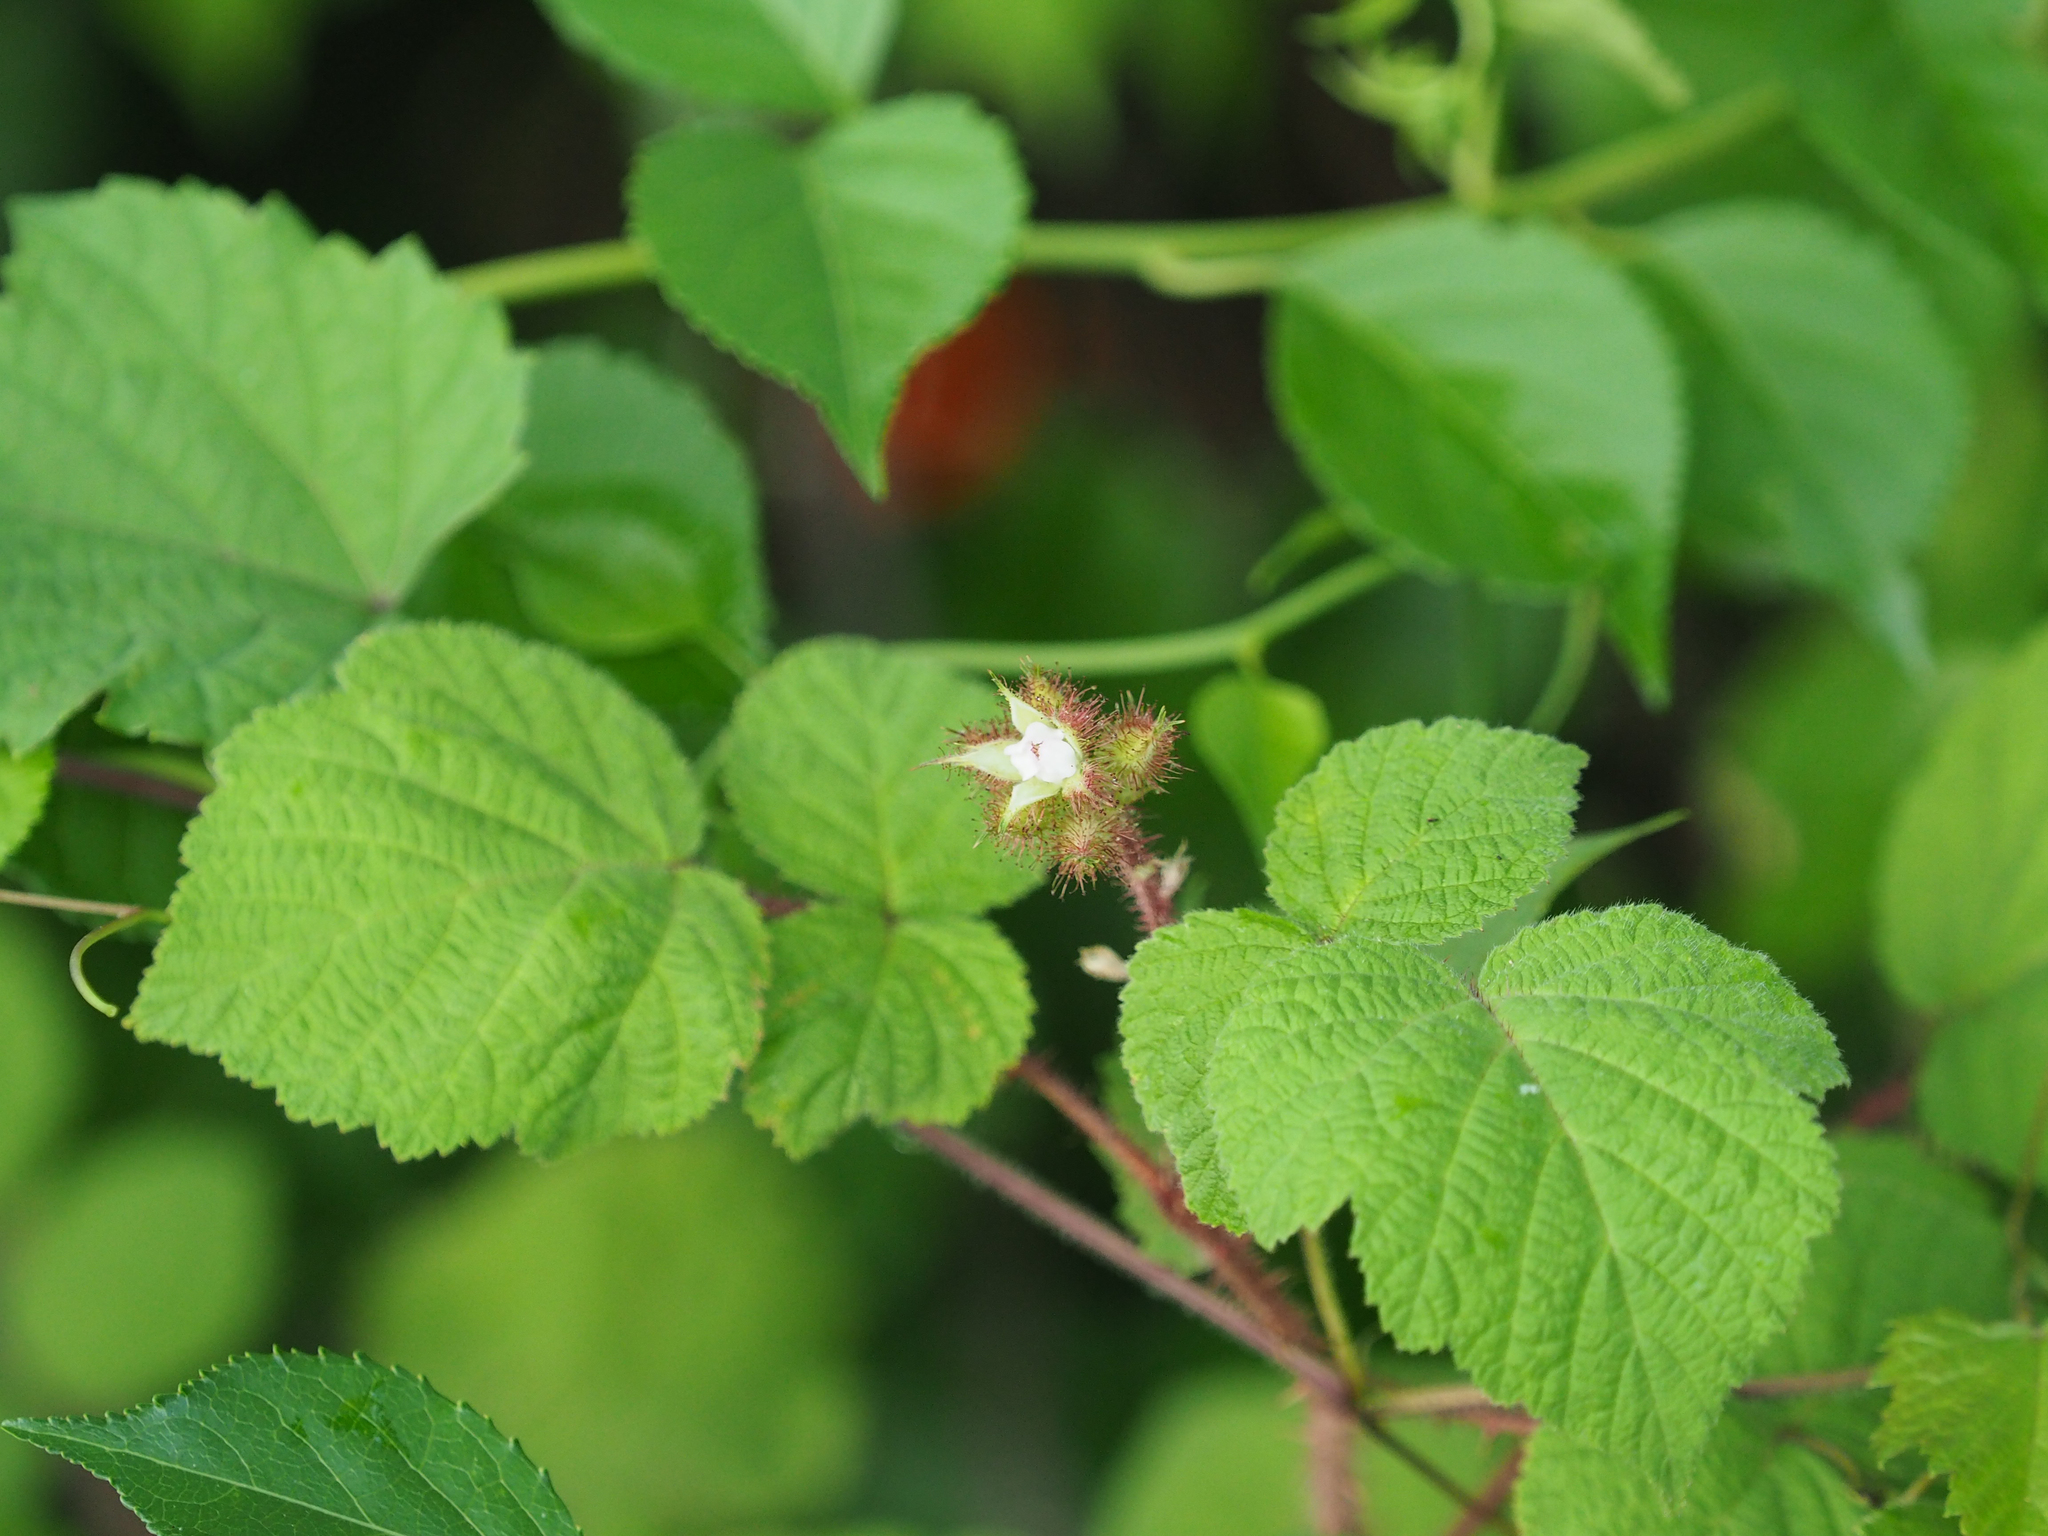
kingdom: Plantae
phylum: Tracheophyta
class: Magnoliopsida
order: Rosales
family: Rosaceae
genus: Rubus
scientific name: Rubus phoenicolasius
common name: Japanese wineberry
